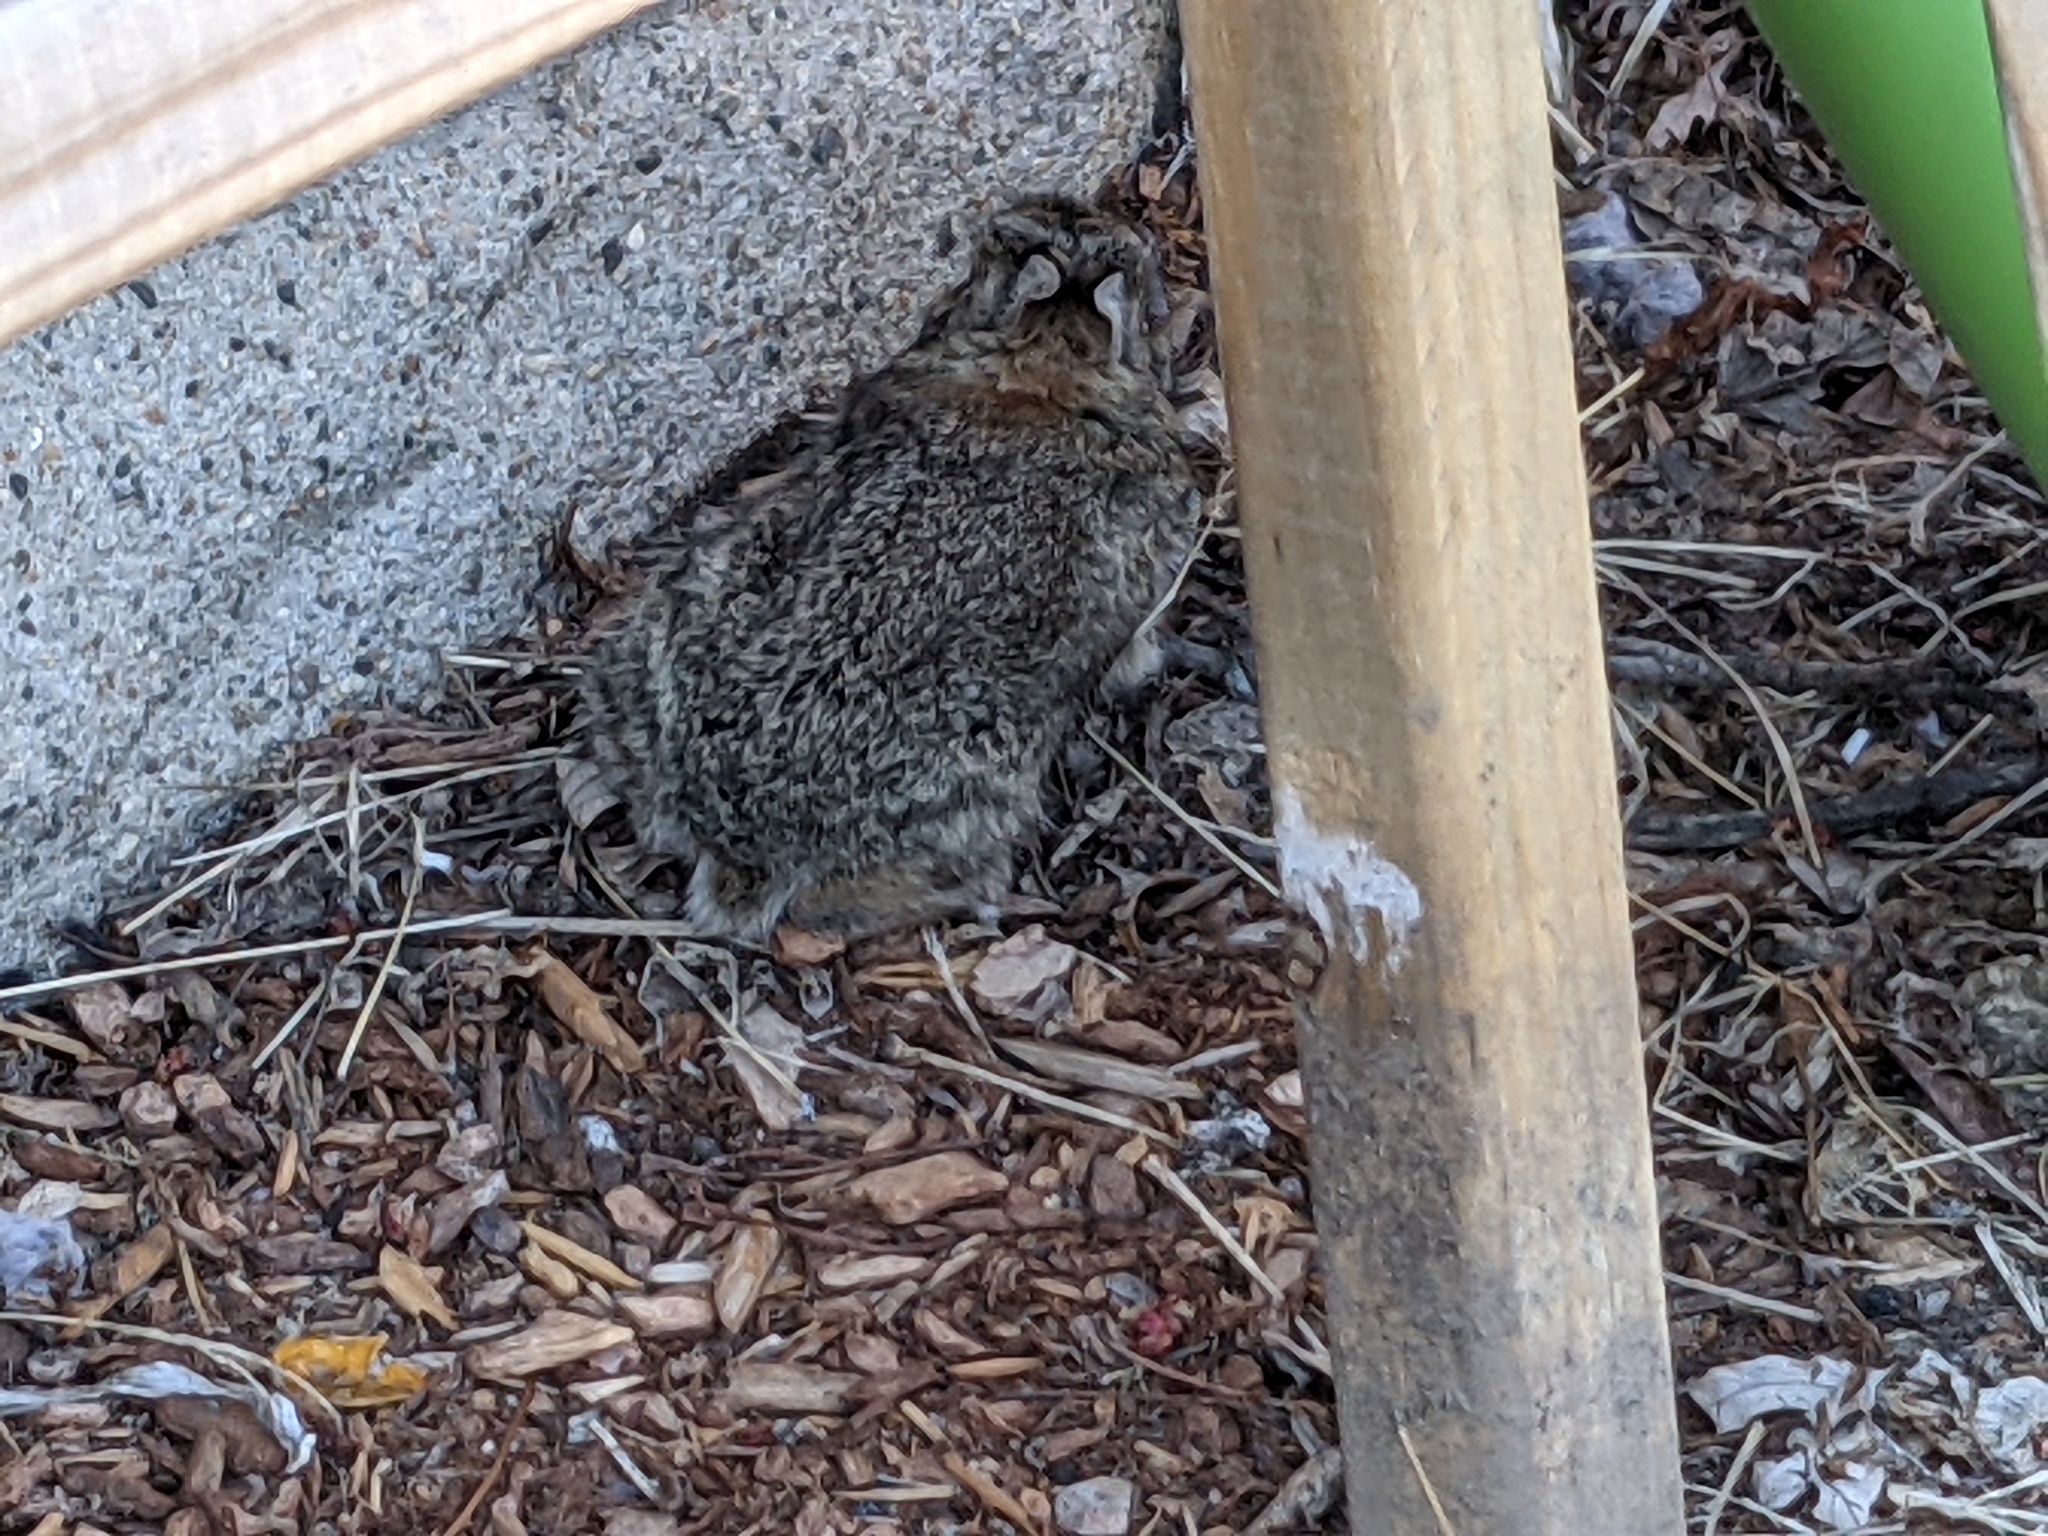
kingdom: Animalia
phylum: Chordata
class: Mammalia
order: Lagomorpha
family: Leporidae
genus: Sylvilagus
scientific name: Sylvilagus floridanus
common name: Eastern cottontail
